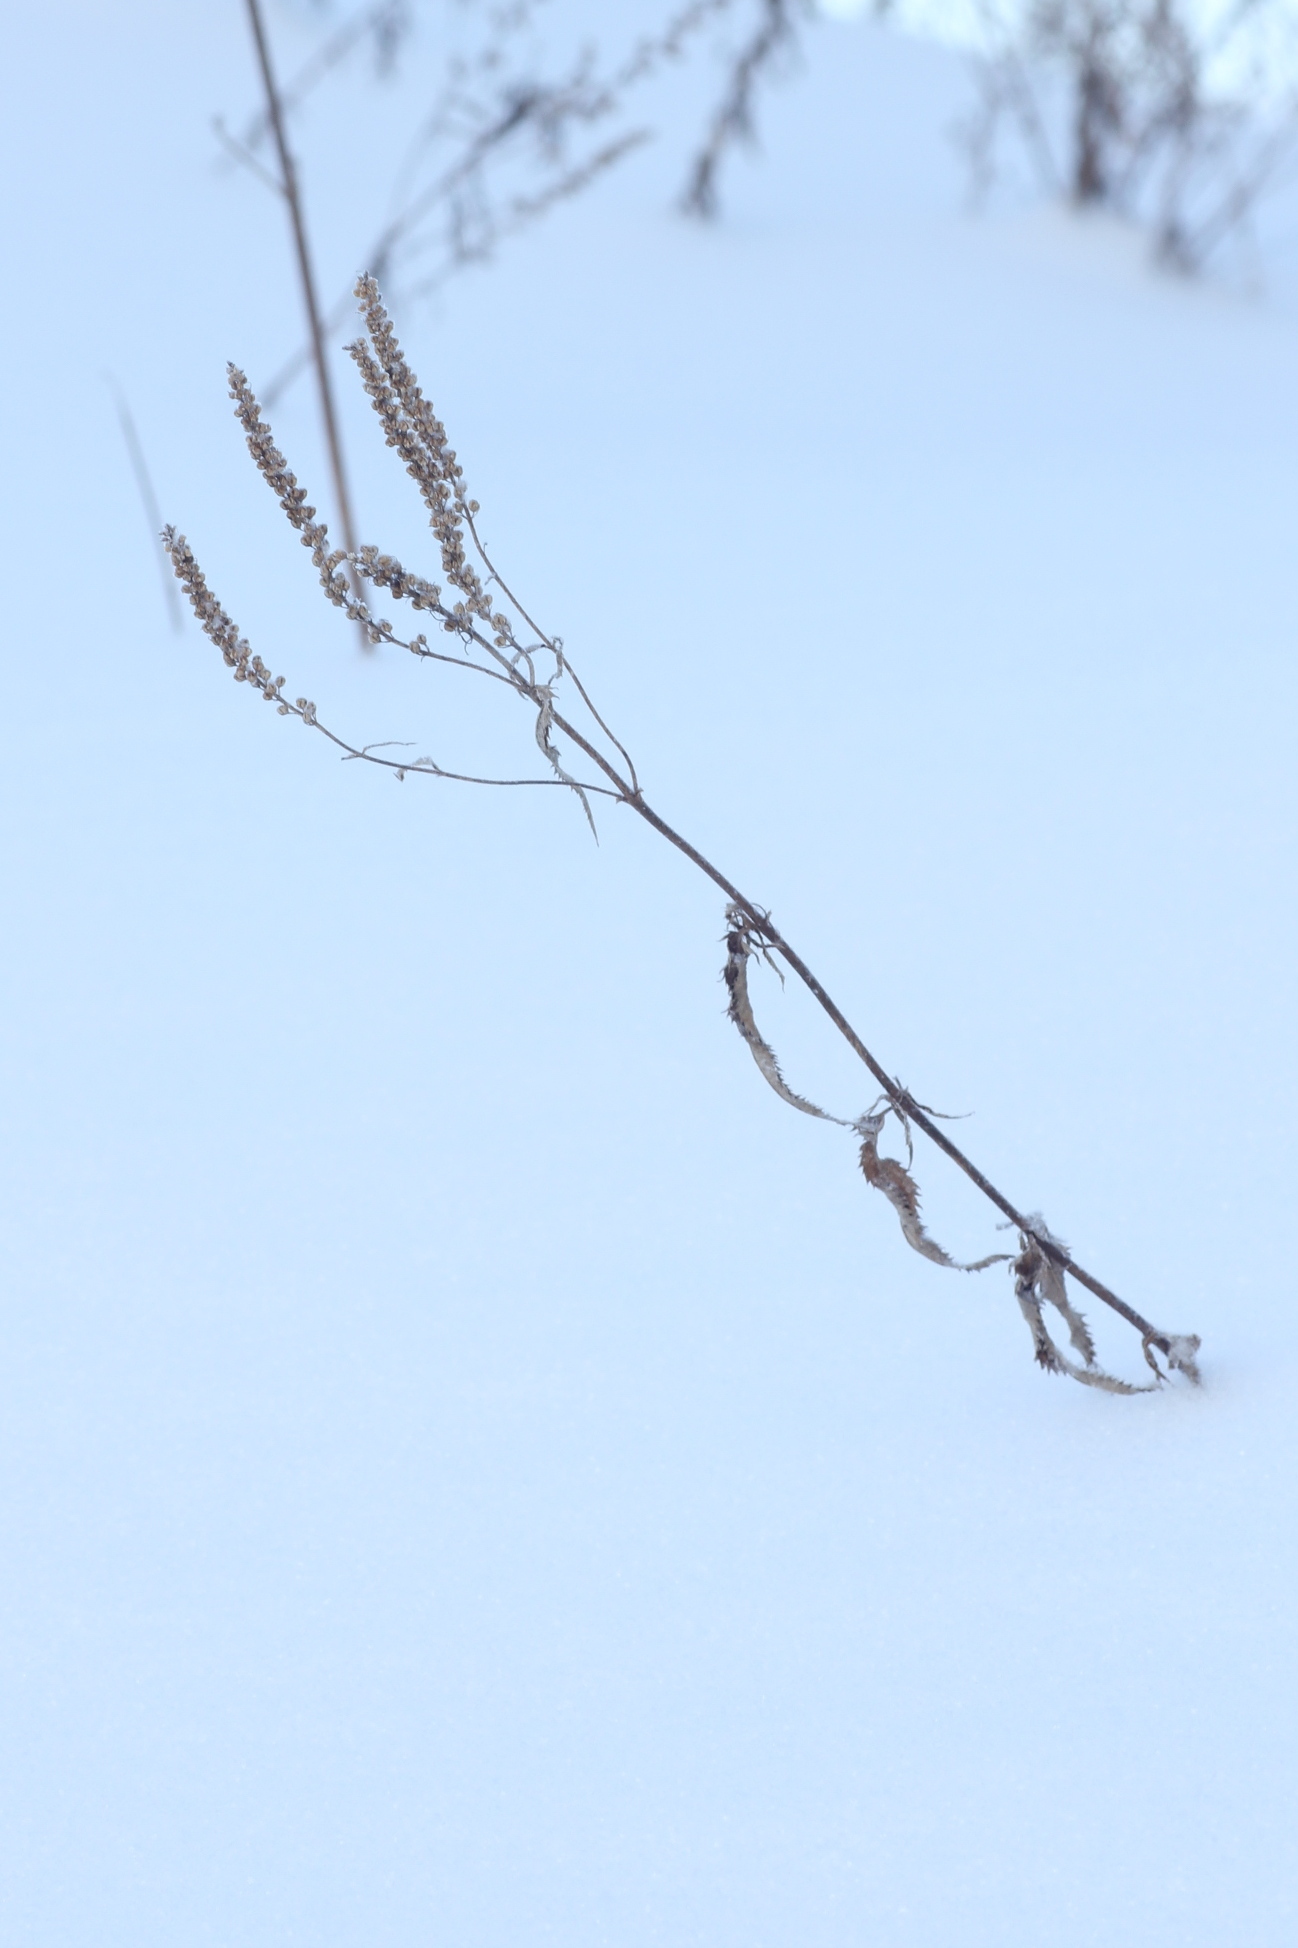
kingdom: Plantae
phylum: Tracheophyta
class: Magnoliopsida
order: Lamiales
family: Plantaginaceae
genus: Veronica
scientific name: Veronica longifolia
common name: Garden speedwell
